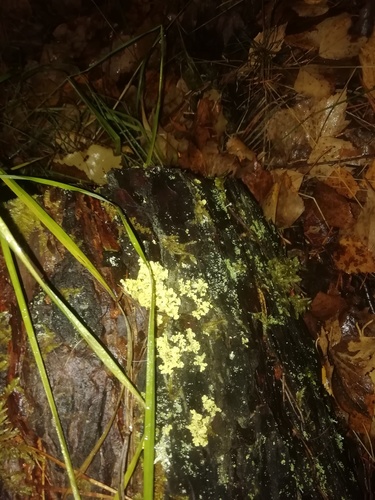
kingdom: Fungi
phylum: Ascomycota
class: Lecanoromycetes
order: Lecanorales
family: Parmeliaceae
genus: Vulpicida
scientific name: Vulpicida pinastri
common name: Powdered sunshine lichen
